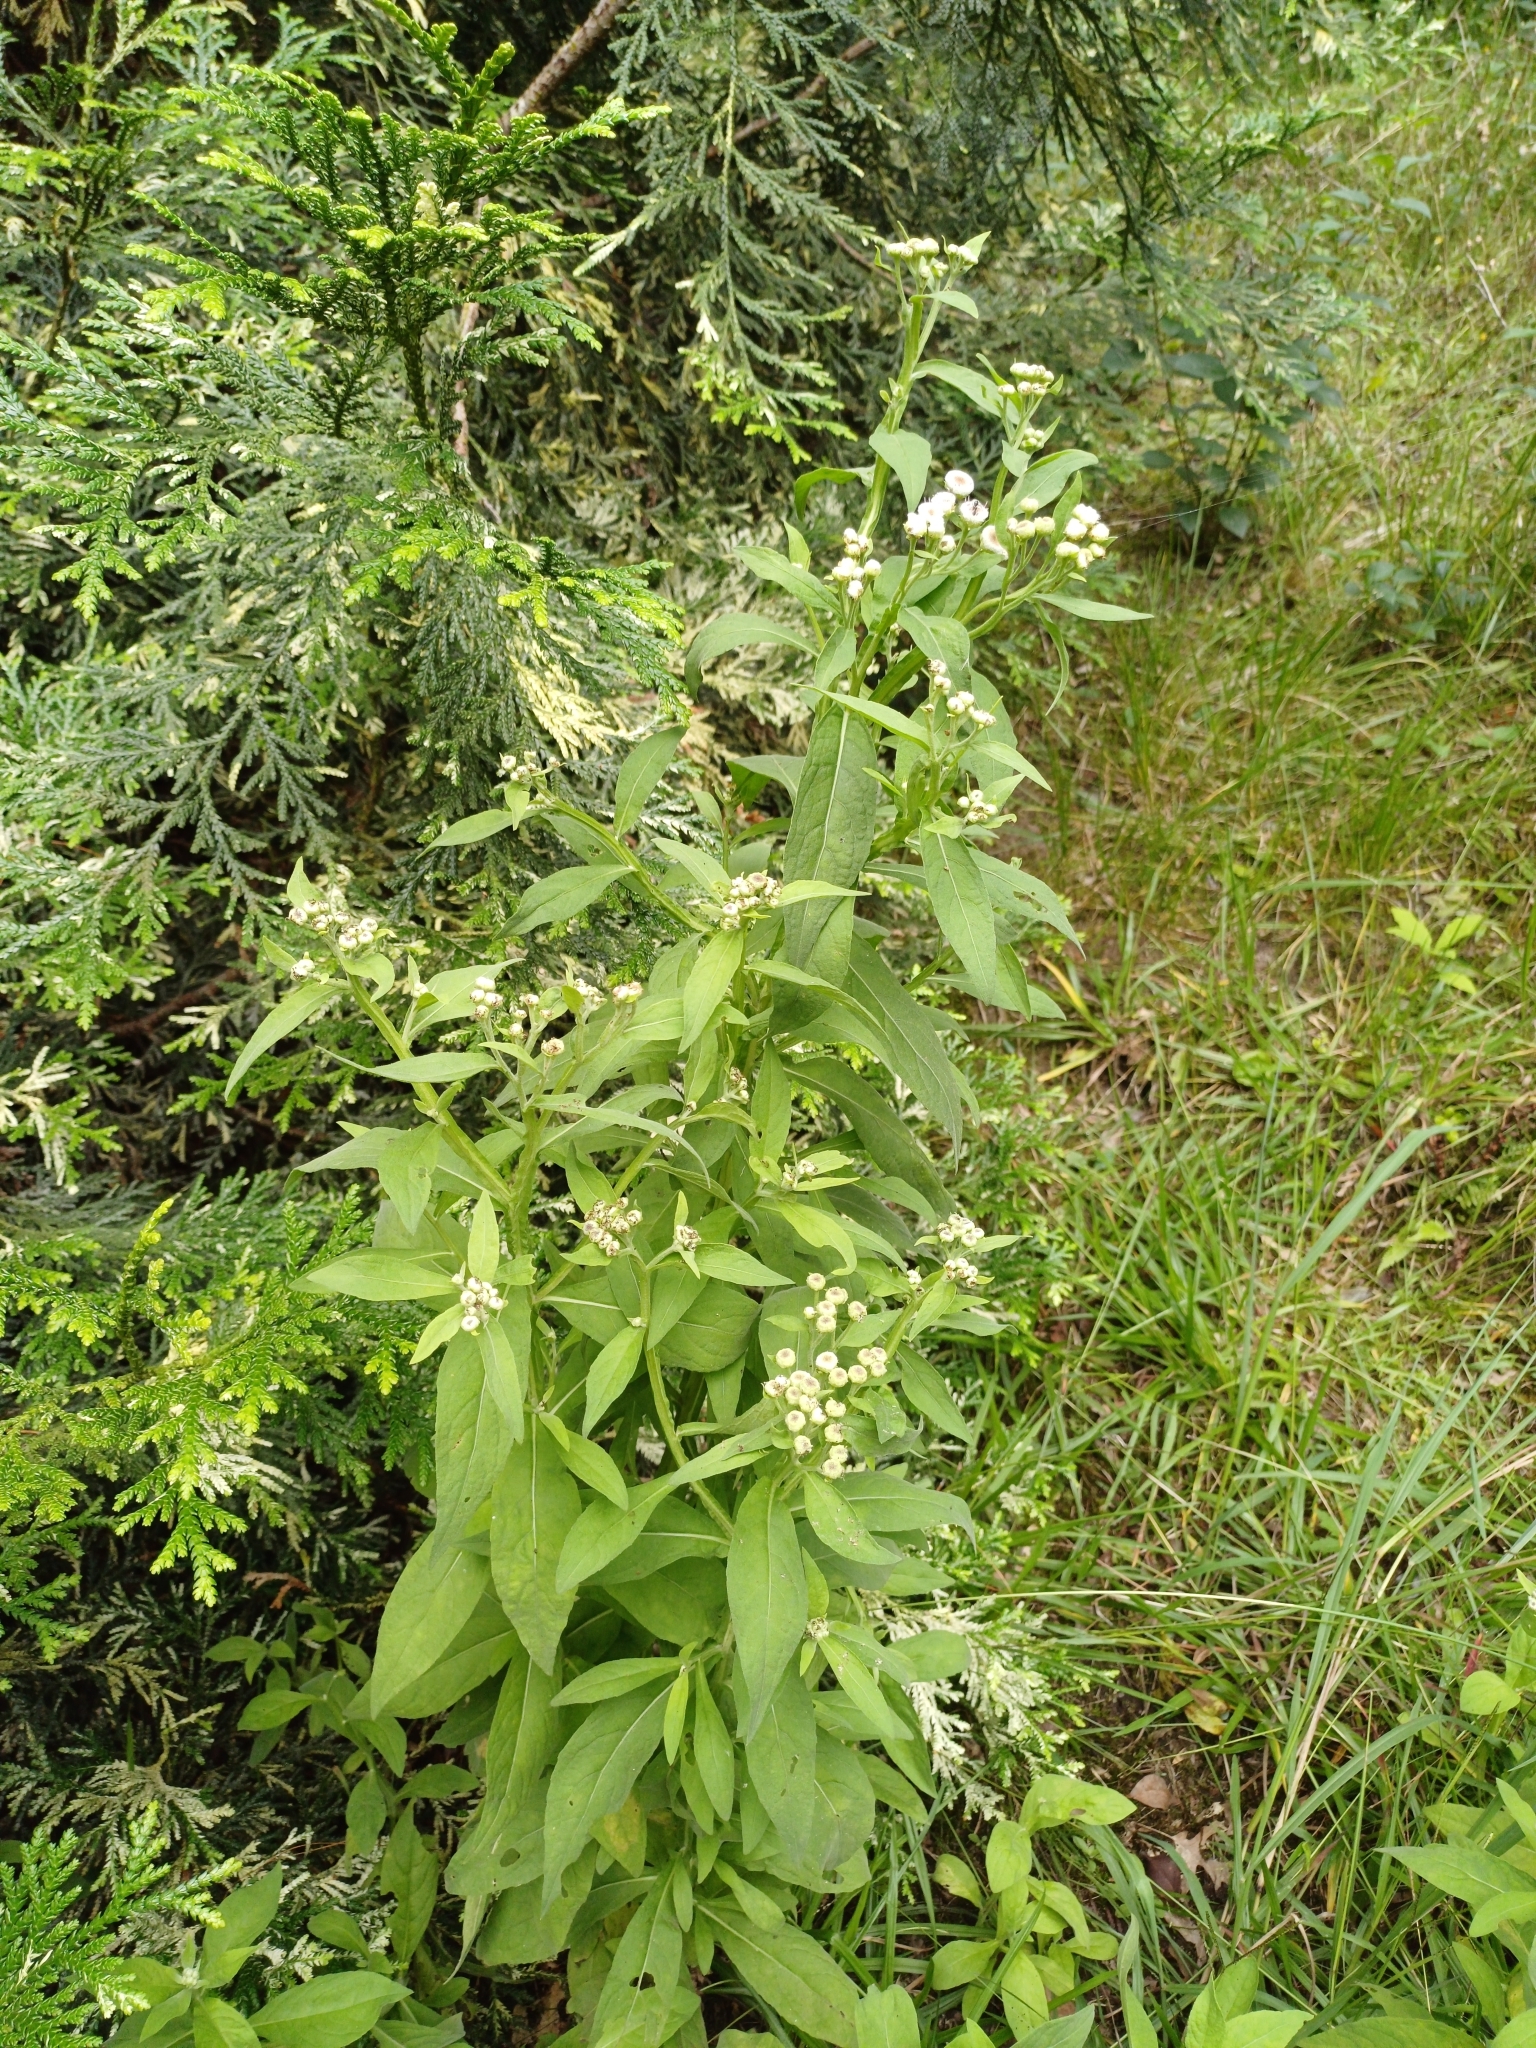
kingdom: Plantae
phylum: Tracheophyta
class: Magnoliopsida
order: Asterales
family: Asteraceae
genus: Pluchea
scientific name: Pluchea sagittalis
